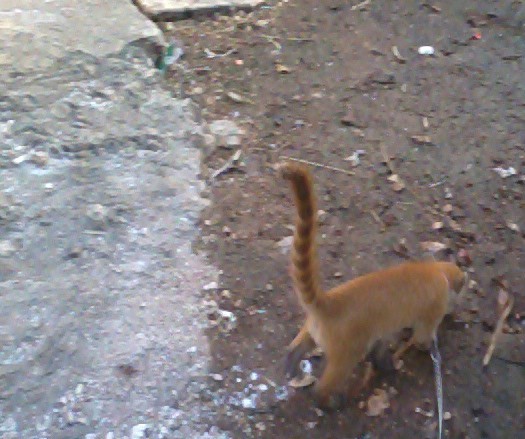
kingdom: Animalia
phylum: Chordata
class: Mammalia
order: Carnivora
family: Procyonidae
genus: Nasua
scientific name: Nasua narica
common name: White-nosed coati
